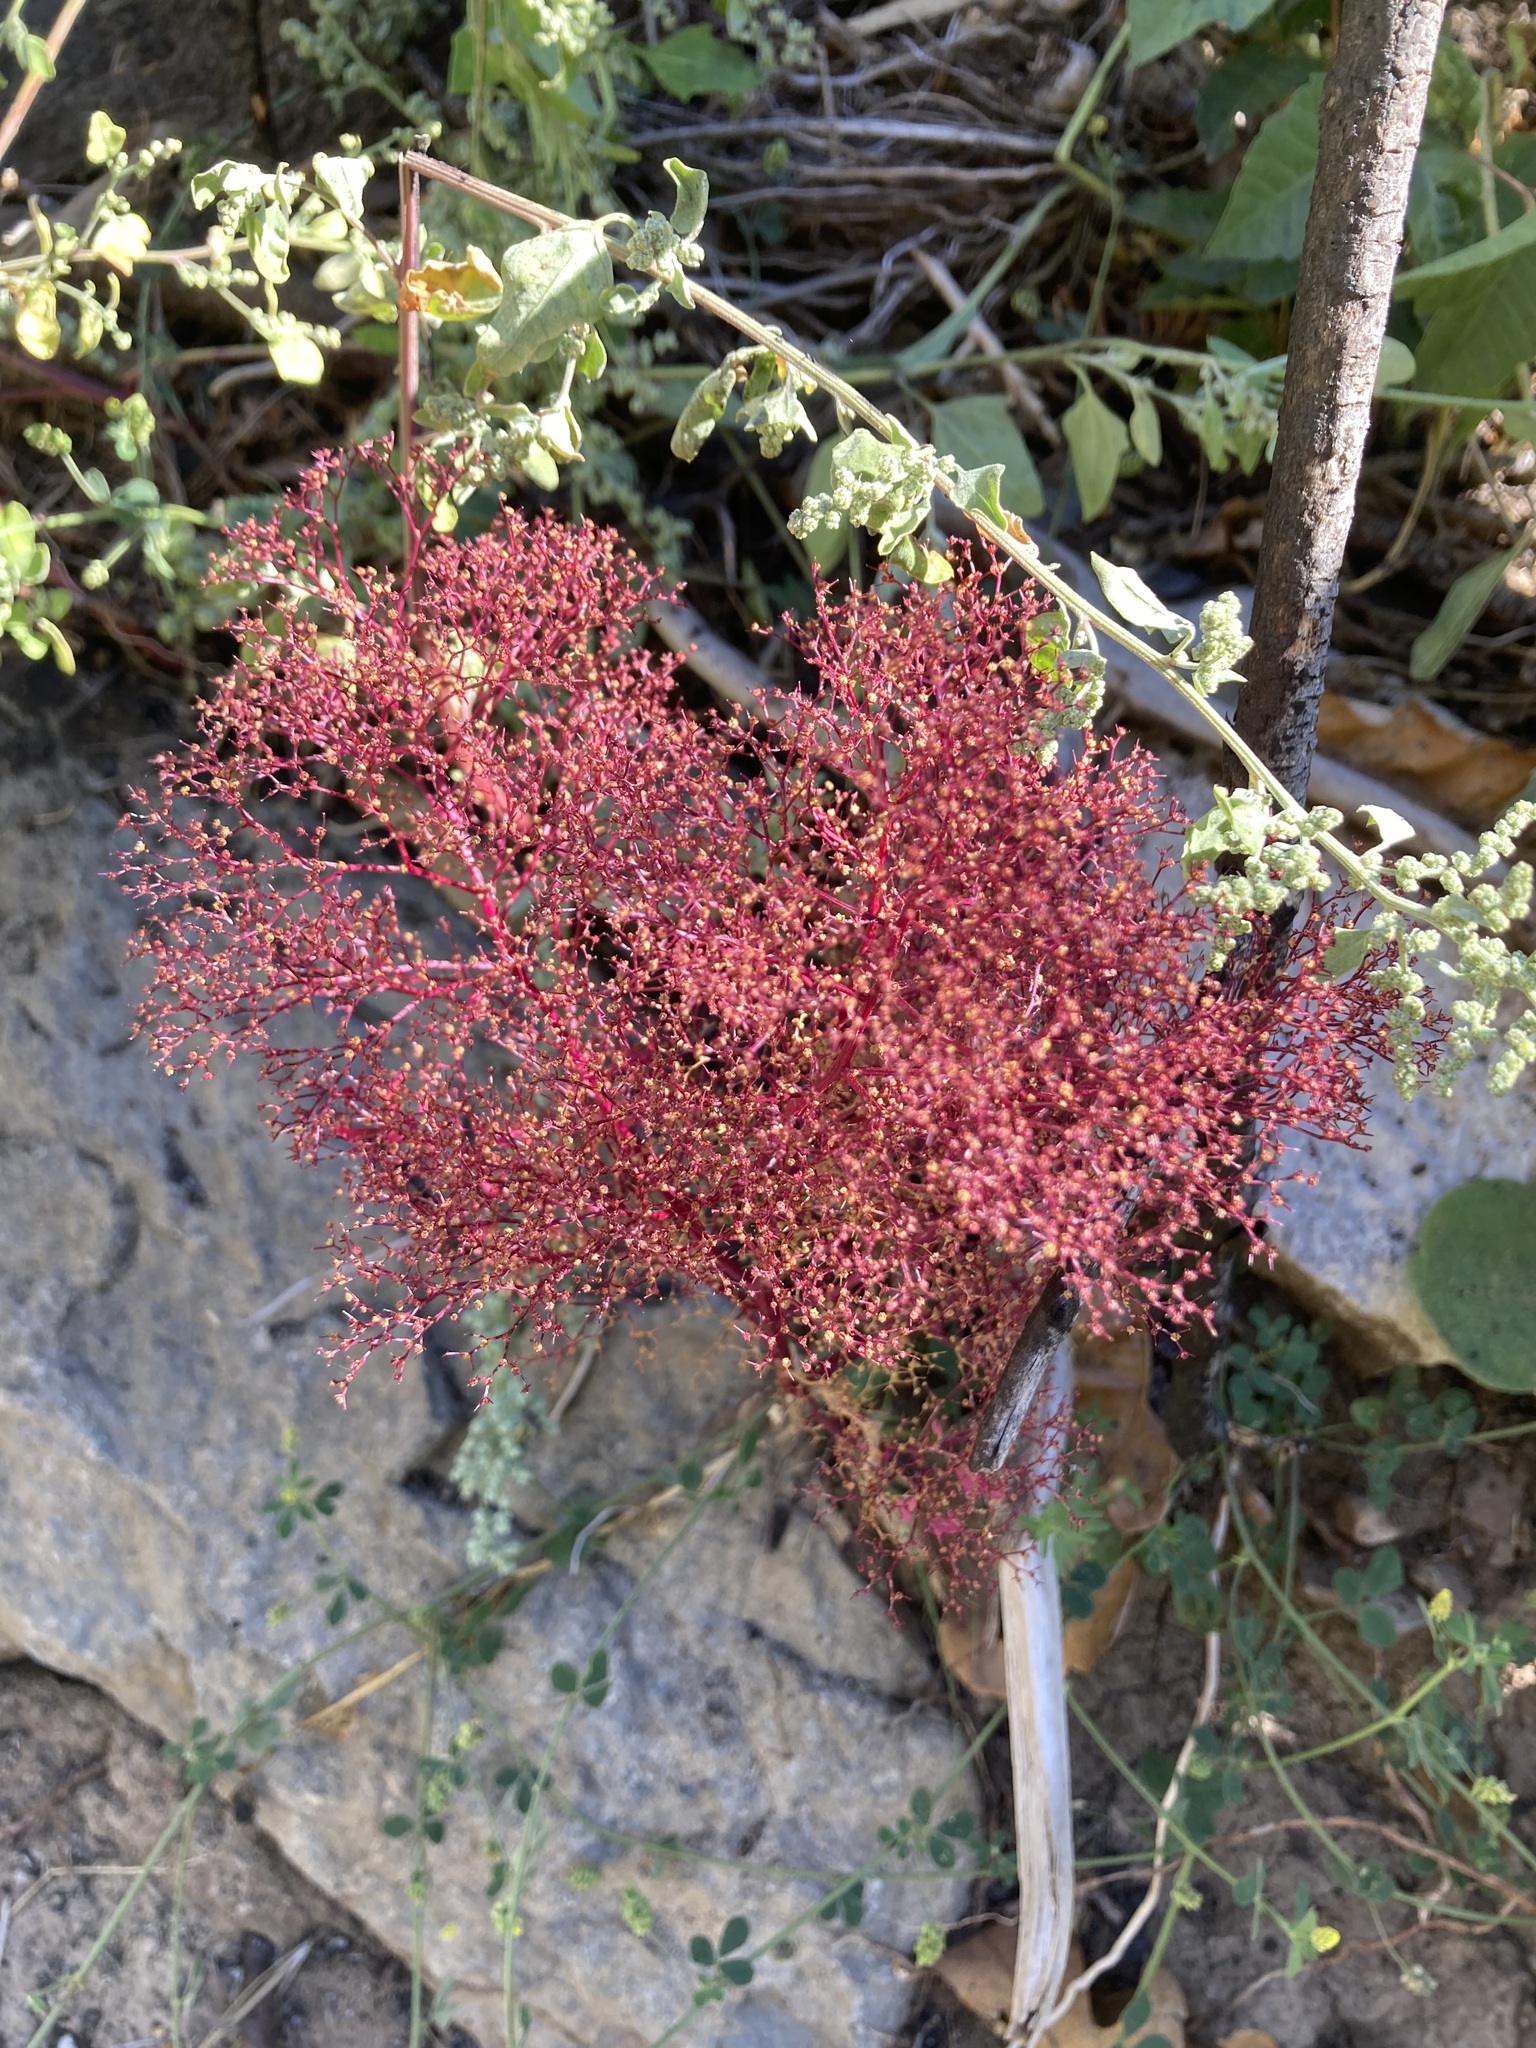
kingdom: Plantae
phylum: Tracheophyta
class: Magnoliopsida
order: Caryophyllales
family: Amaranthaceae
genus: Dysphania
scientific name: Dysphania incisa
